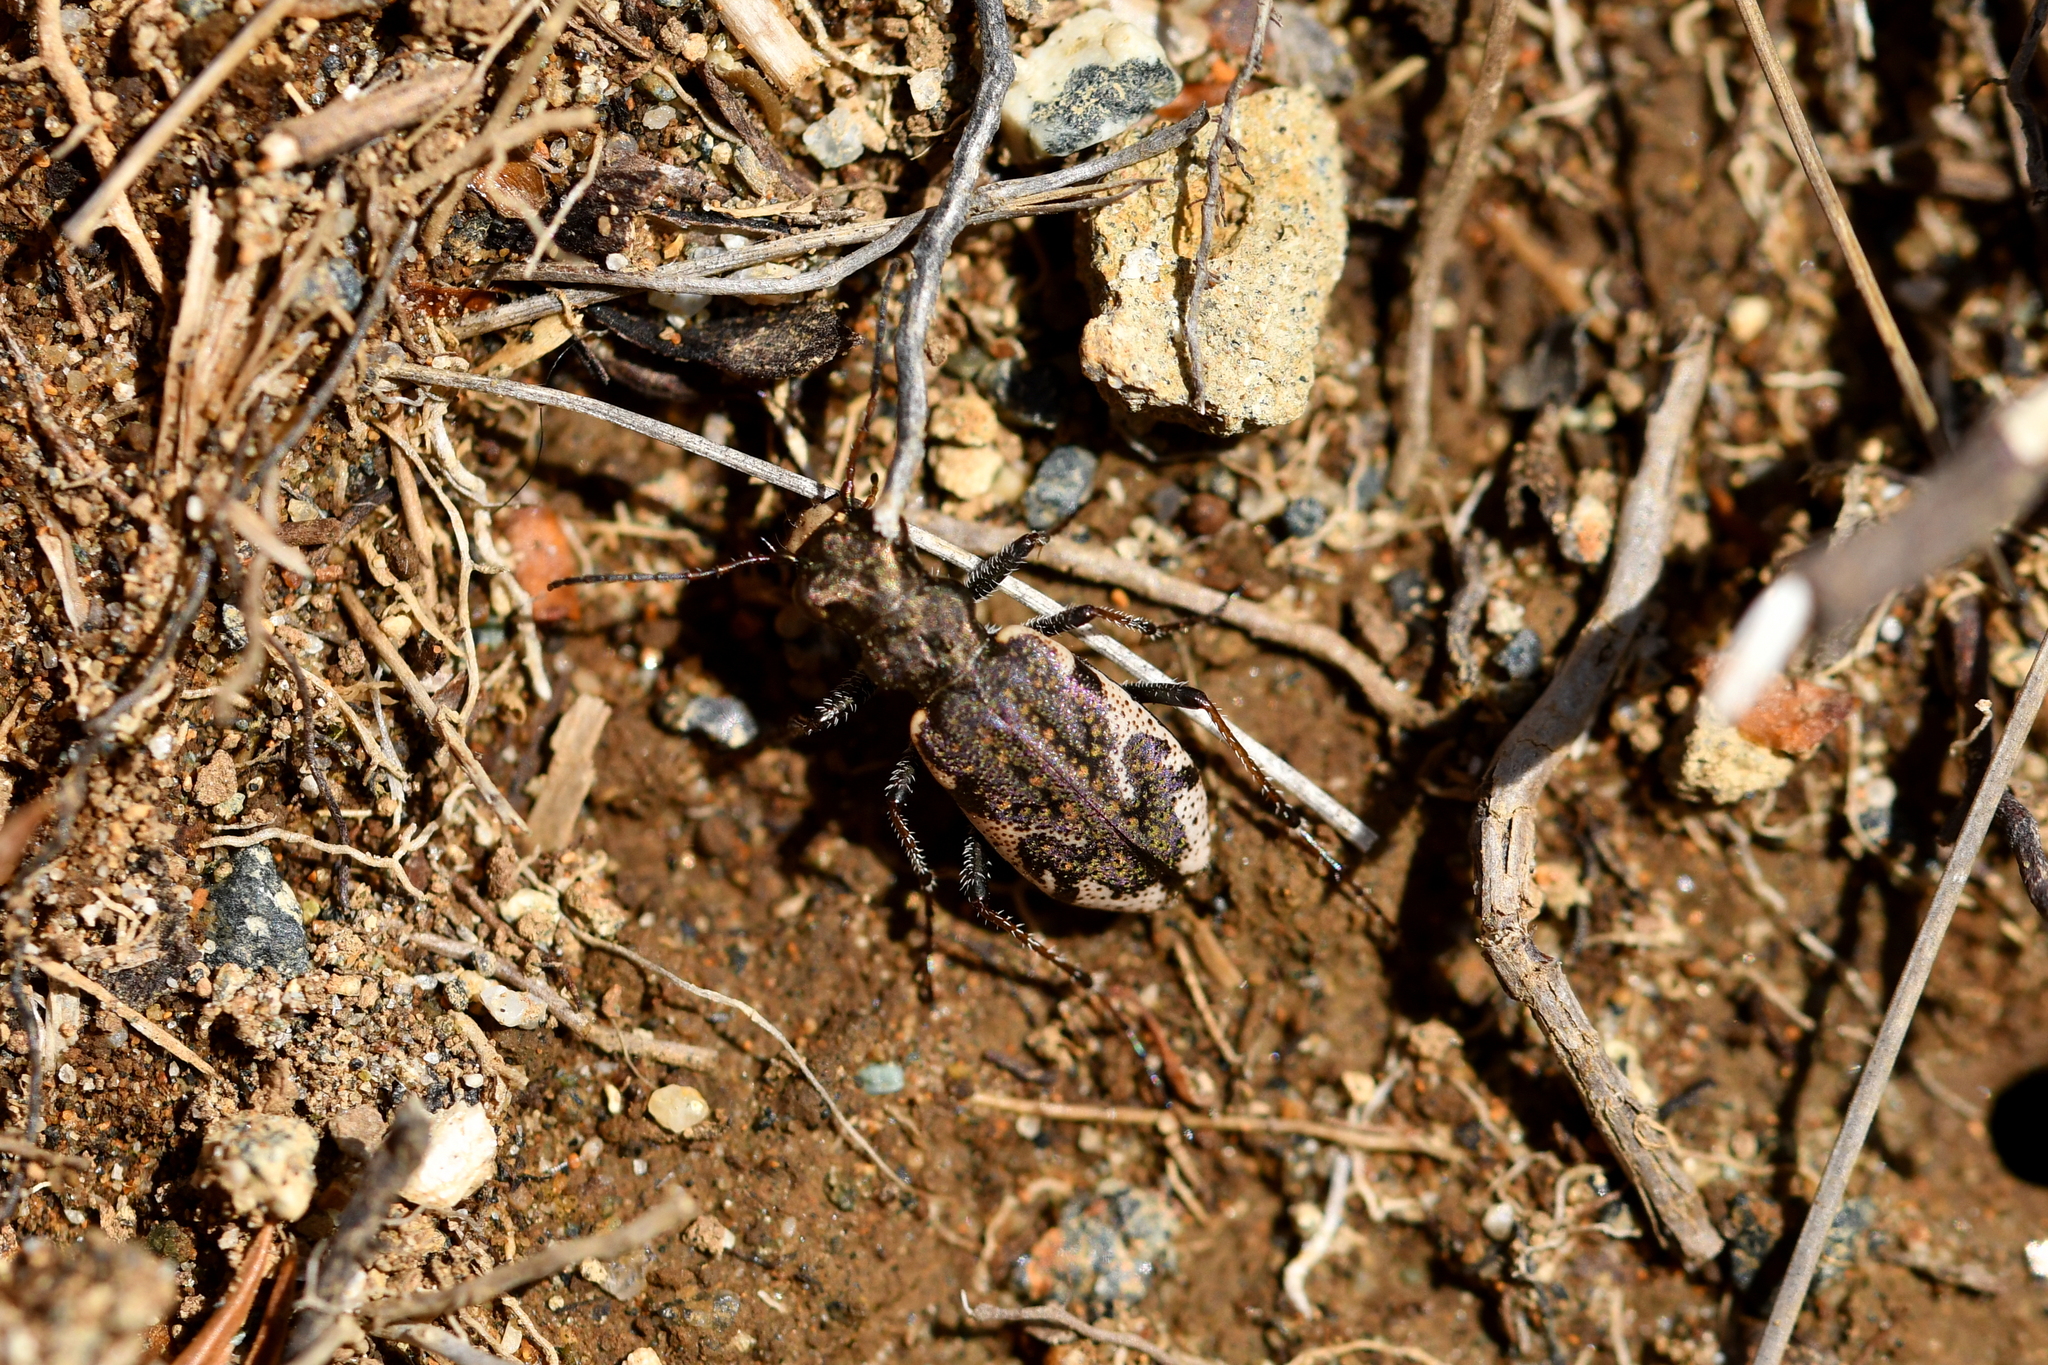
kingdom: Animalia
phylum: Arthropoda
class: Insecta
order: Coleoptera
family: Carabidae
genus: Neocicindela
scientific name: Neocicindela garnerae
